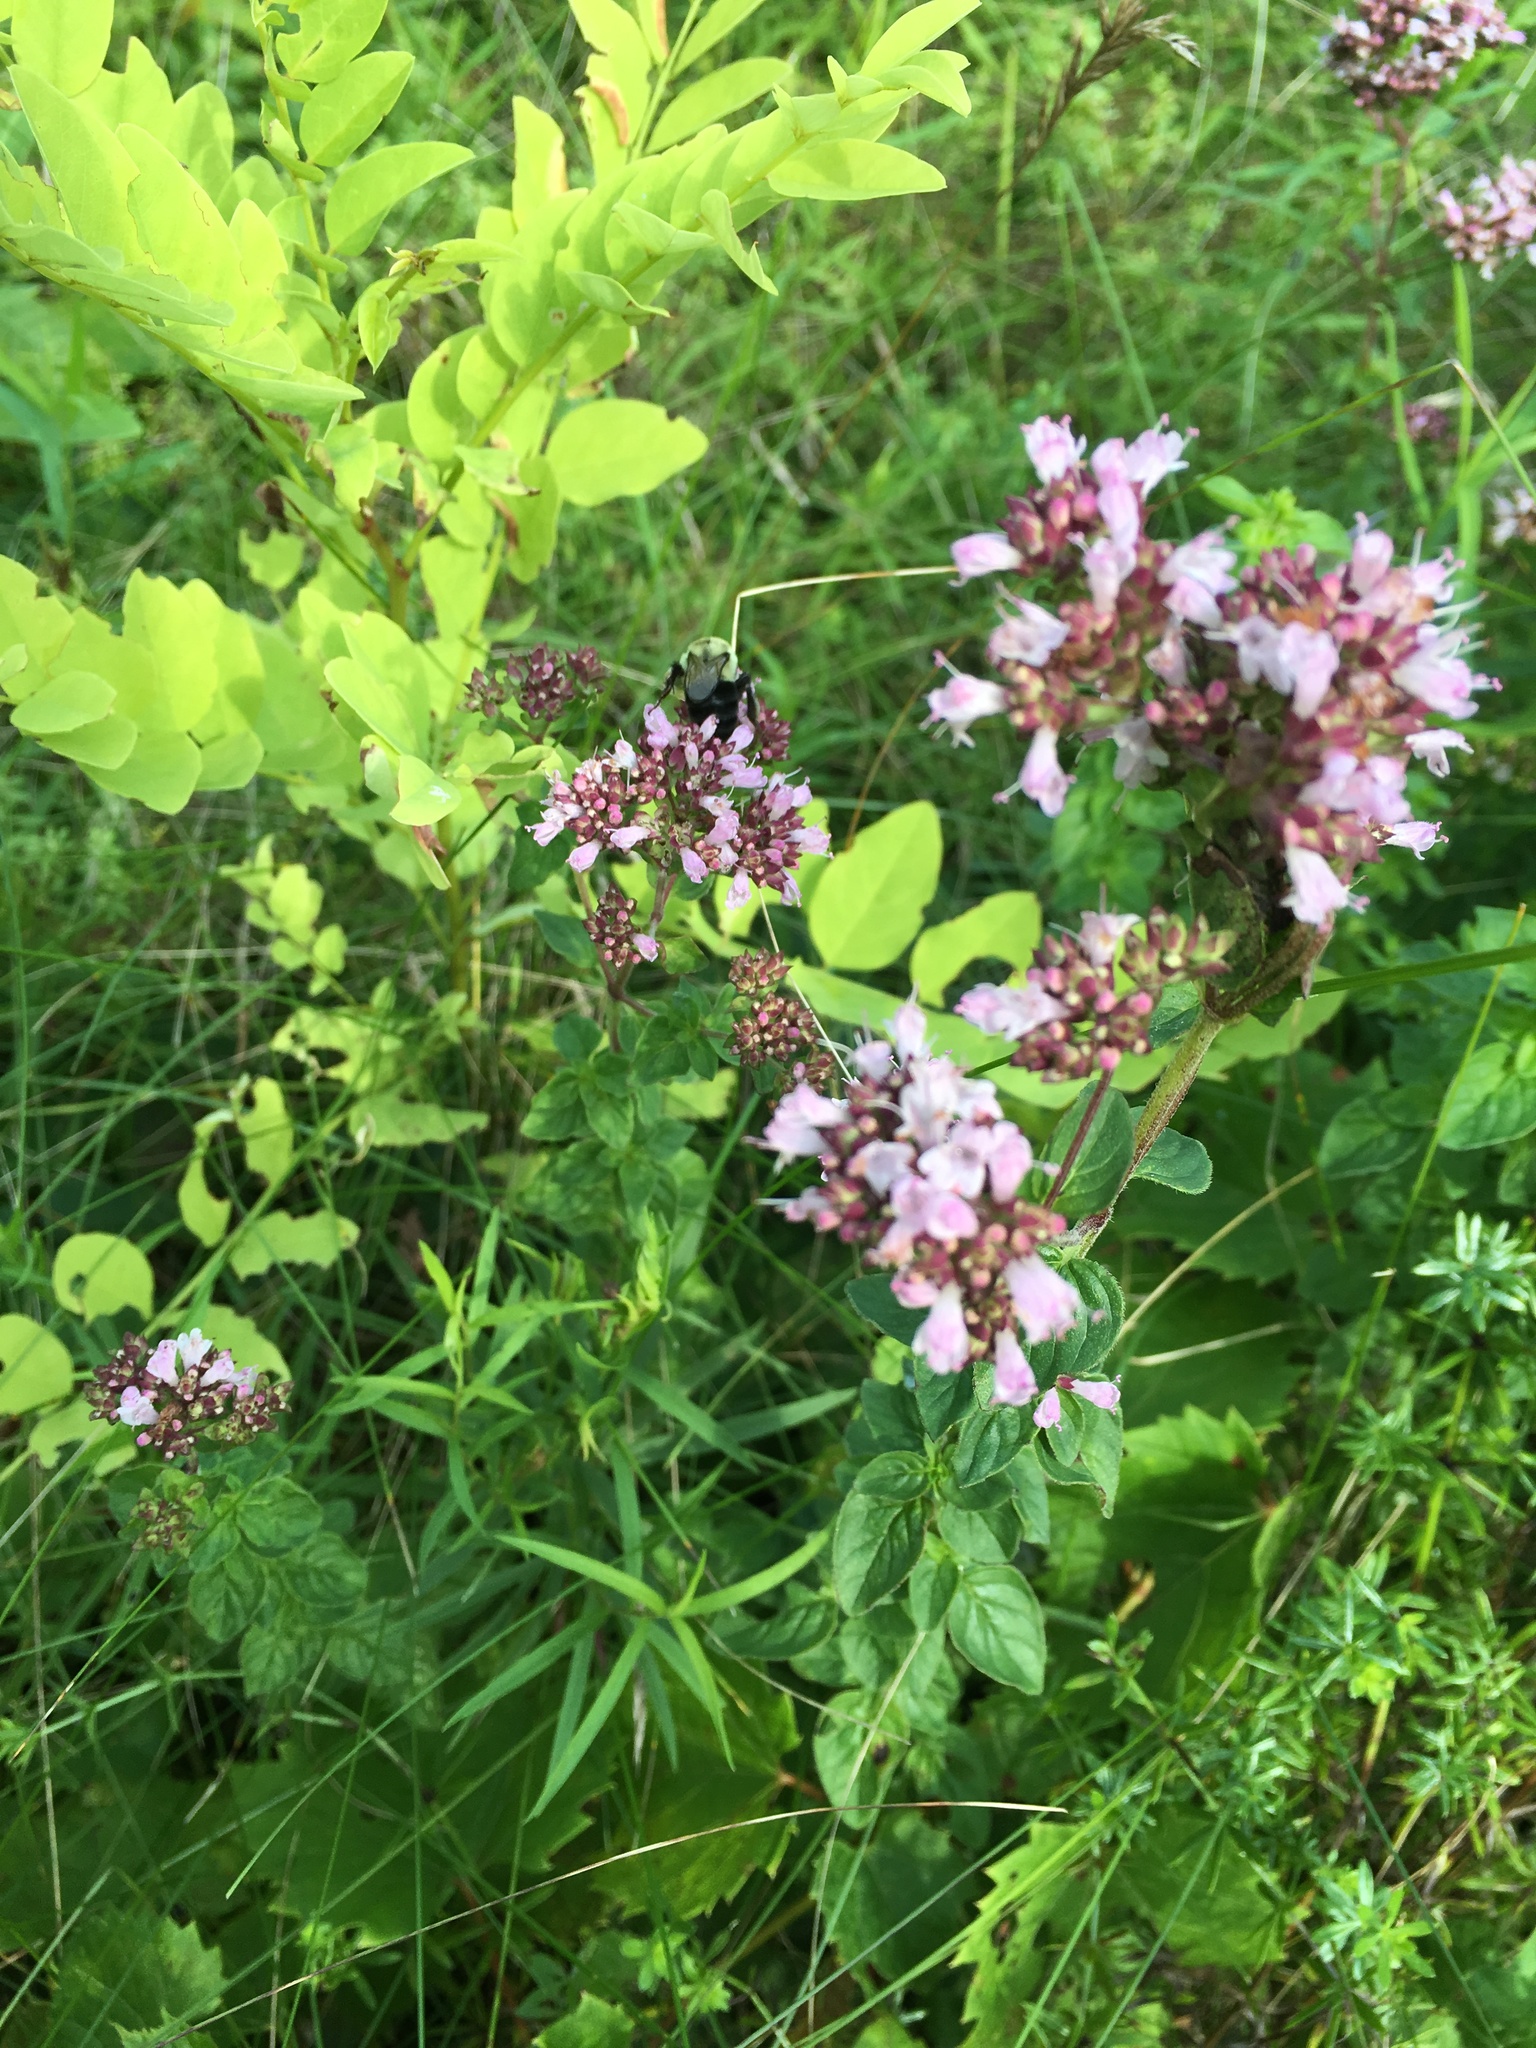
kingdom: Plantae
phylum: Tracheophyta
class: Magnoliopsida
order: Lamiales
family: Lamiaceae
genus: Origanum
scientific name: Origanum vulgare
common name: Wild marjoram
